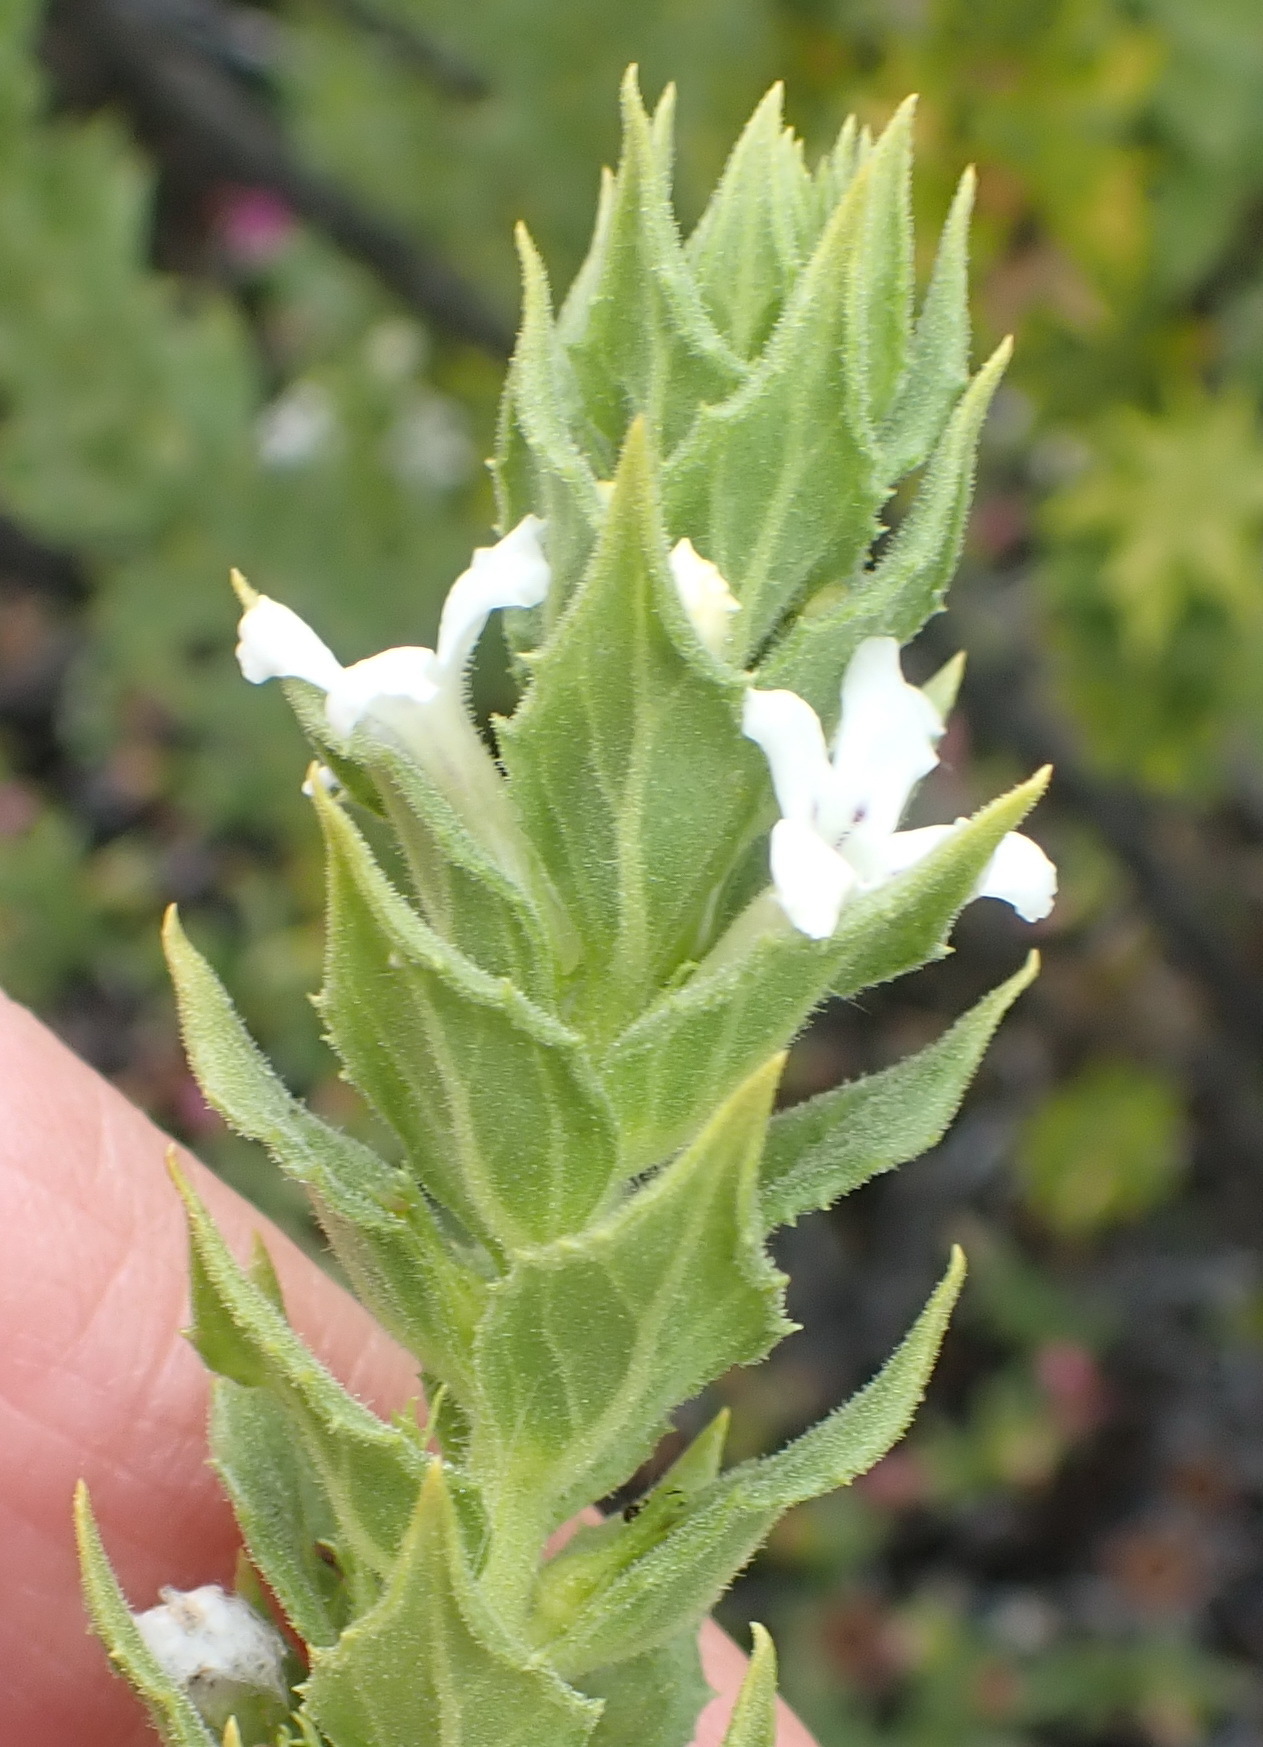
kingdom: Plantae
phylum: Tracheophyta
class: Magnoliopsida
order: Lamiales
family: Scrophulariaceae
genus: Oftia
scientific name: Oftia africana
